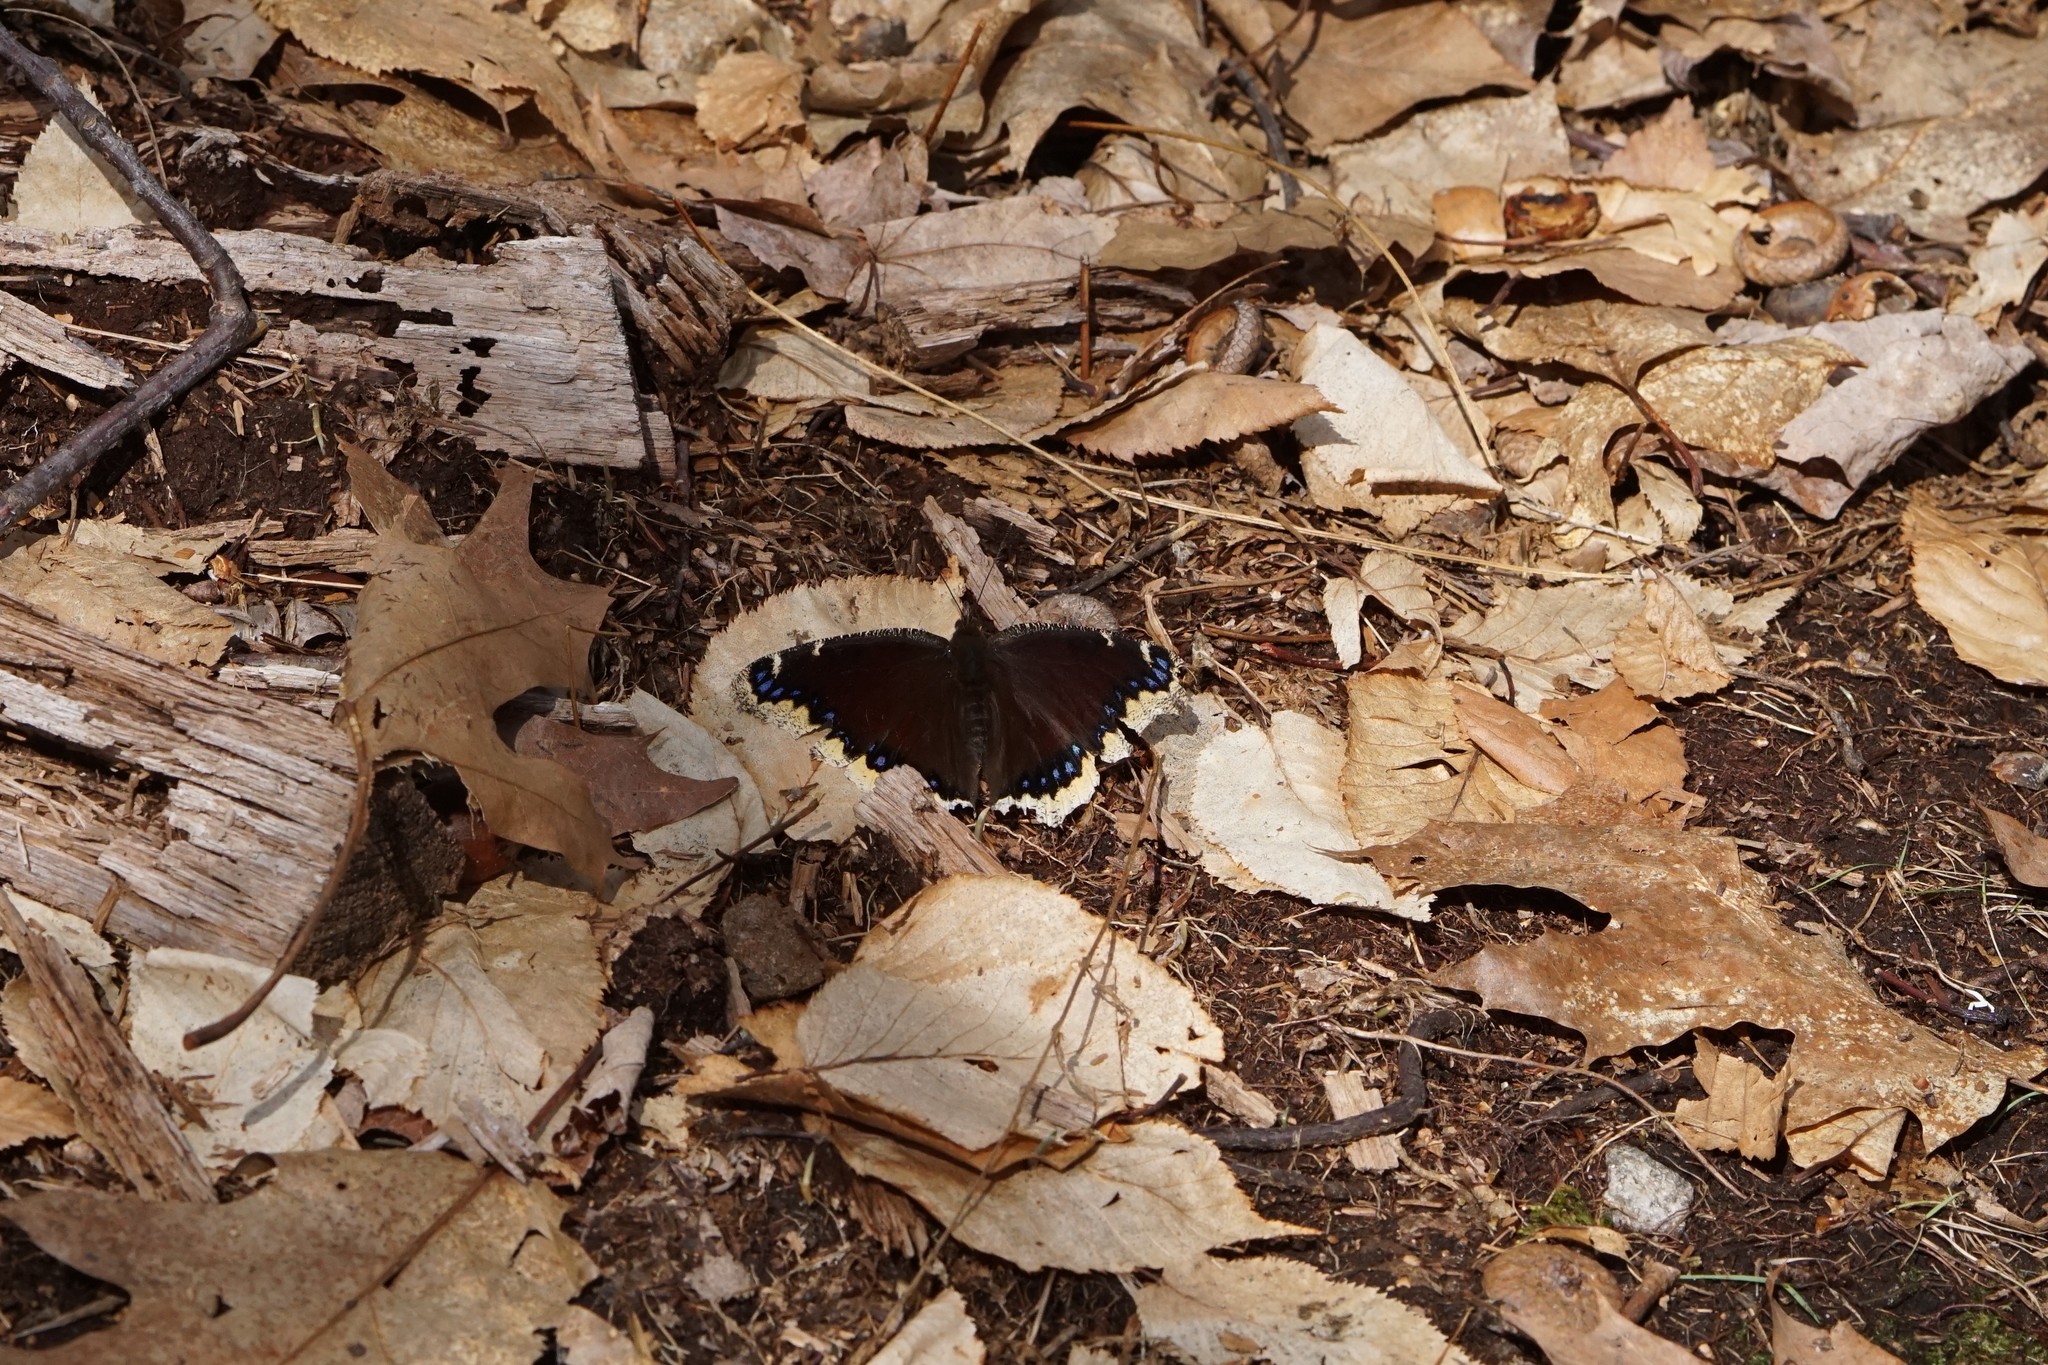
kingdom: Animalia
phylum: Arthropoda
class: Insecta
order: Lepidoptera
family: Nymphalidae
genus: Nymphalis
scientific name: Nymphalis antiopa
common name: Camberwell beauty
